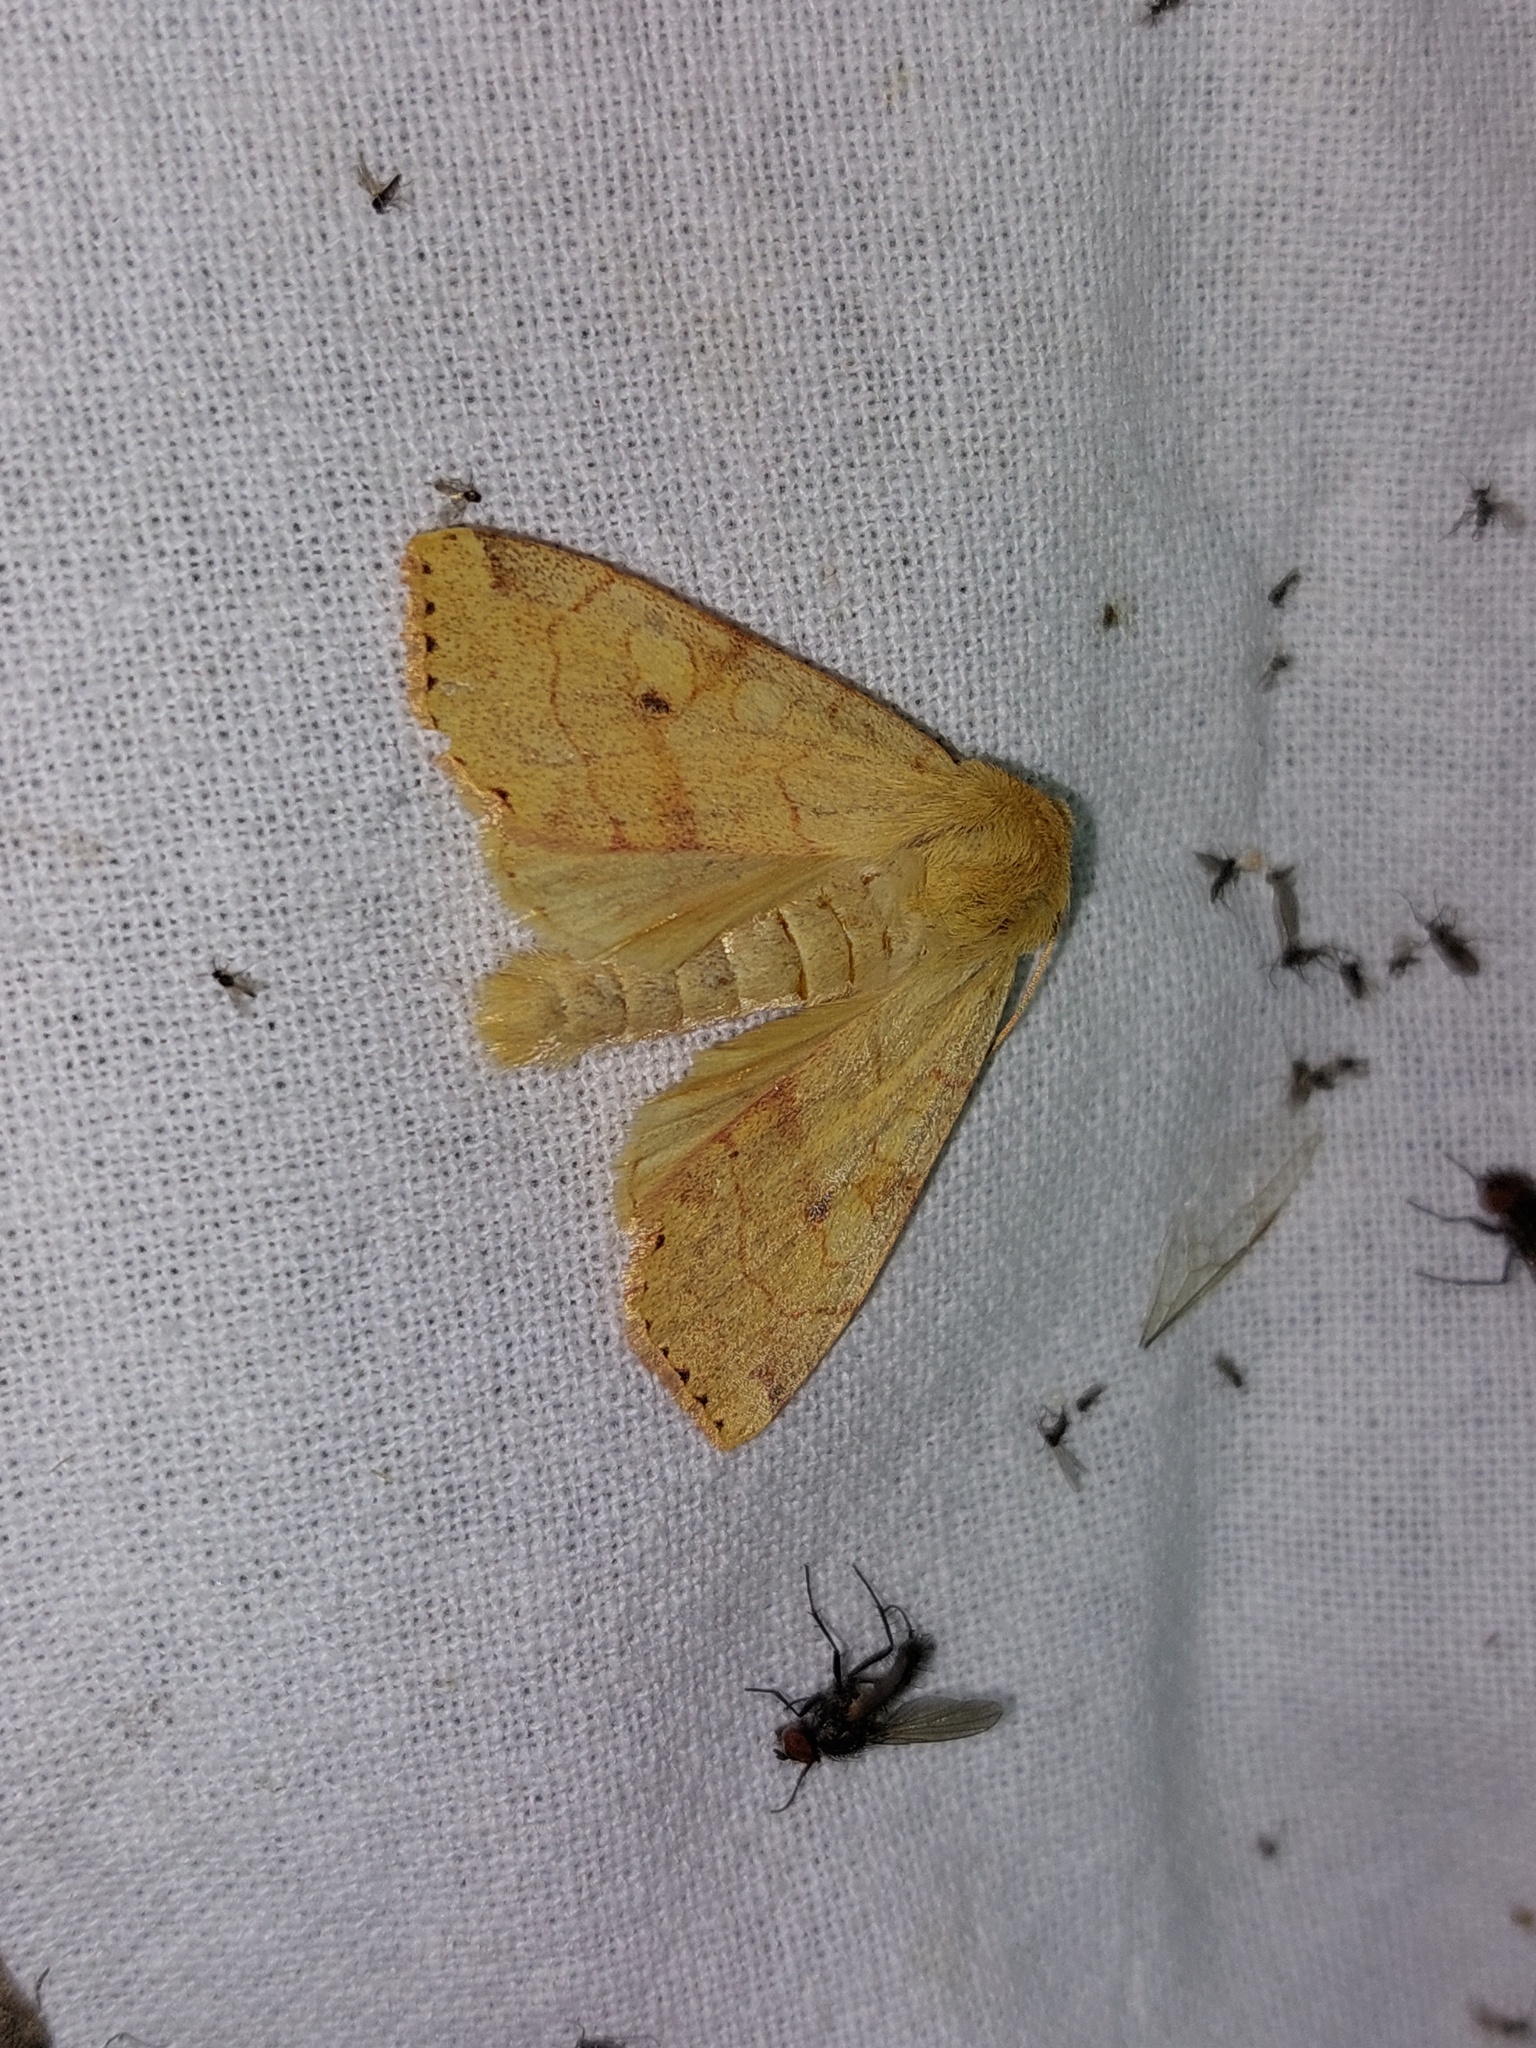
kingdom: Animalia
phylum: Arthropoda
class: Insecta
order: Lepidoptera
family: Noctuidae
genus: Enargia
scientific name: Enargia paleacea
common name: Angle-striped sallow
